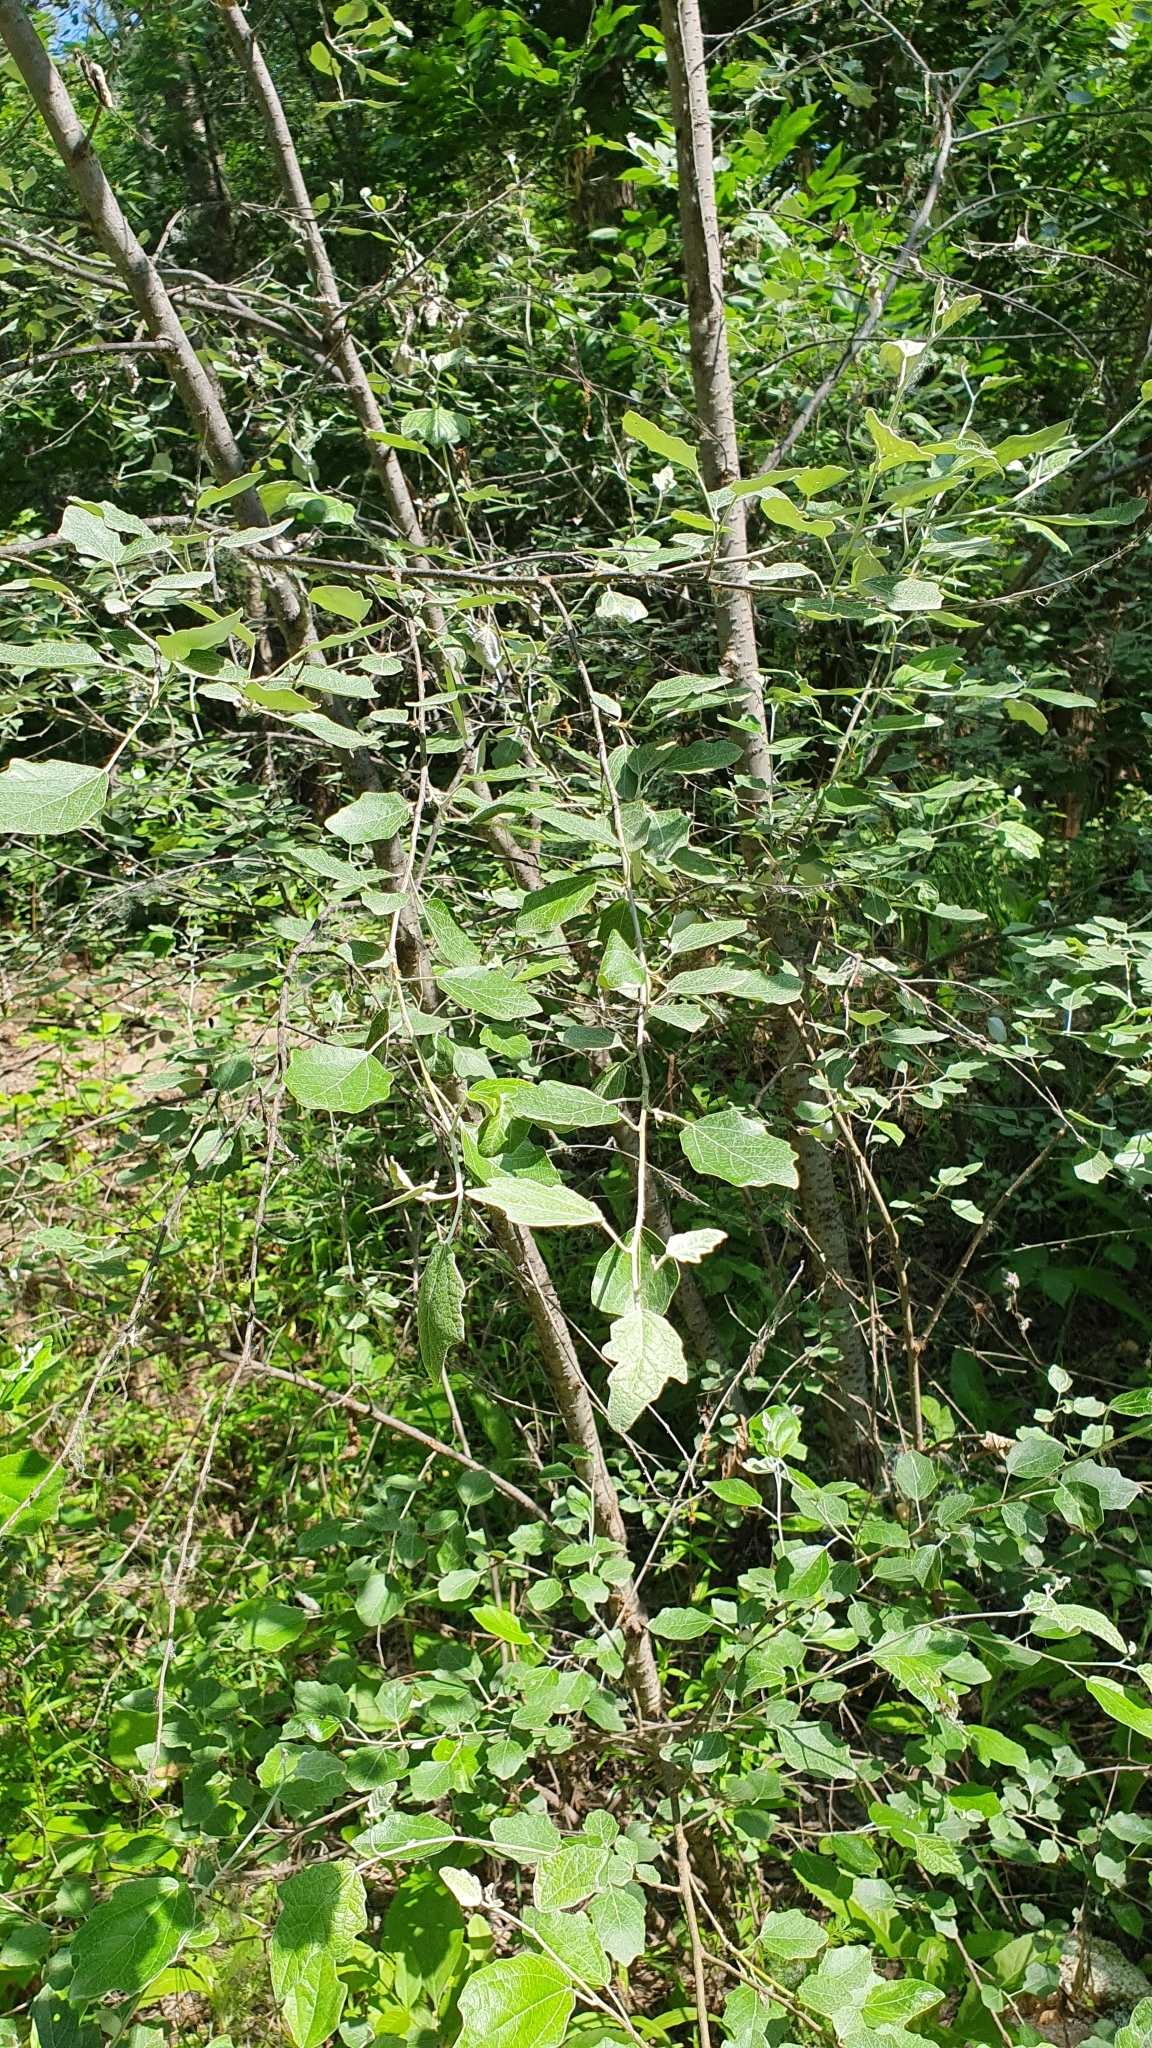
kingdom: Plantae
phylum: Tracheophyta
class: Magnoliopsida
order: Malpighiales
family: Salicaceae
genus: Populus
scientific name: Populus alba
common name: White poplar
